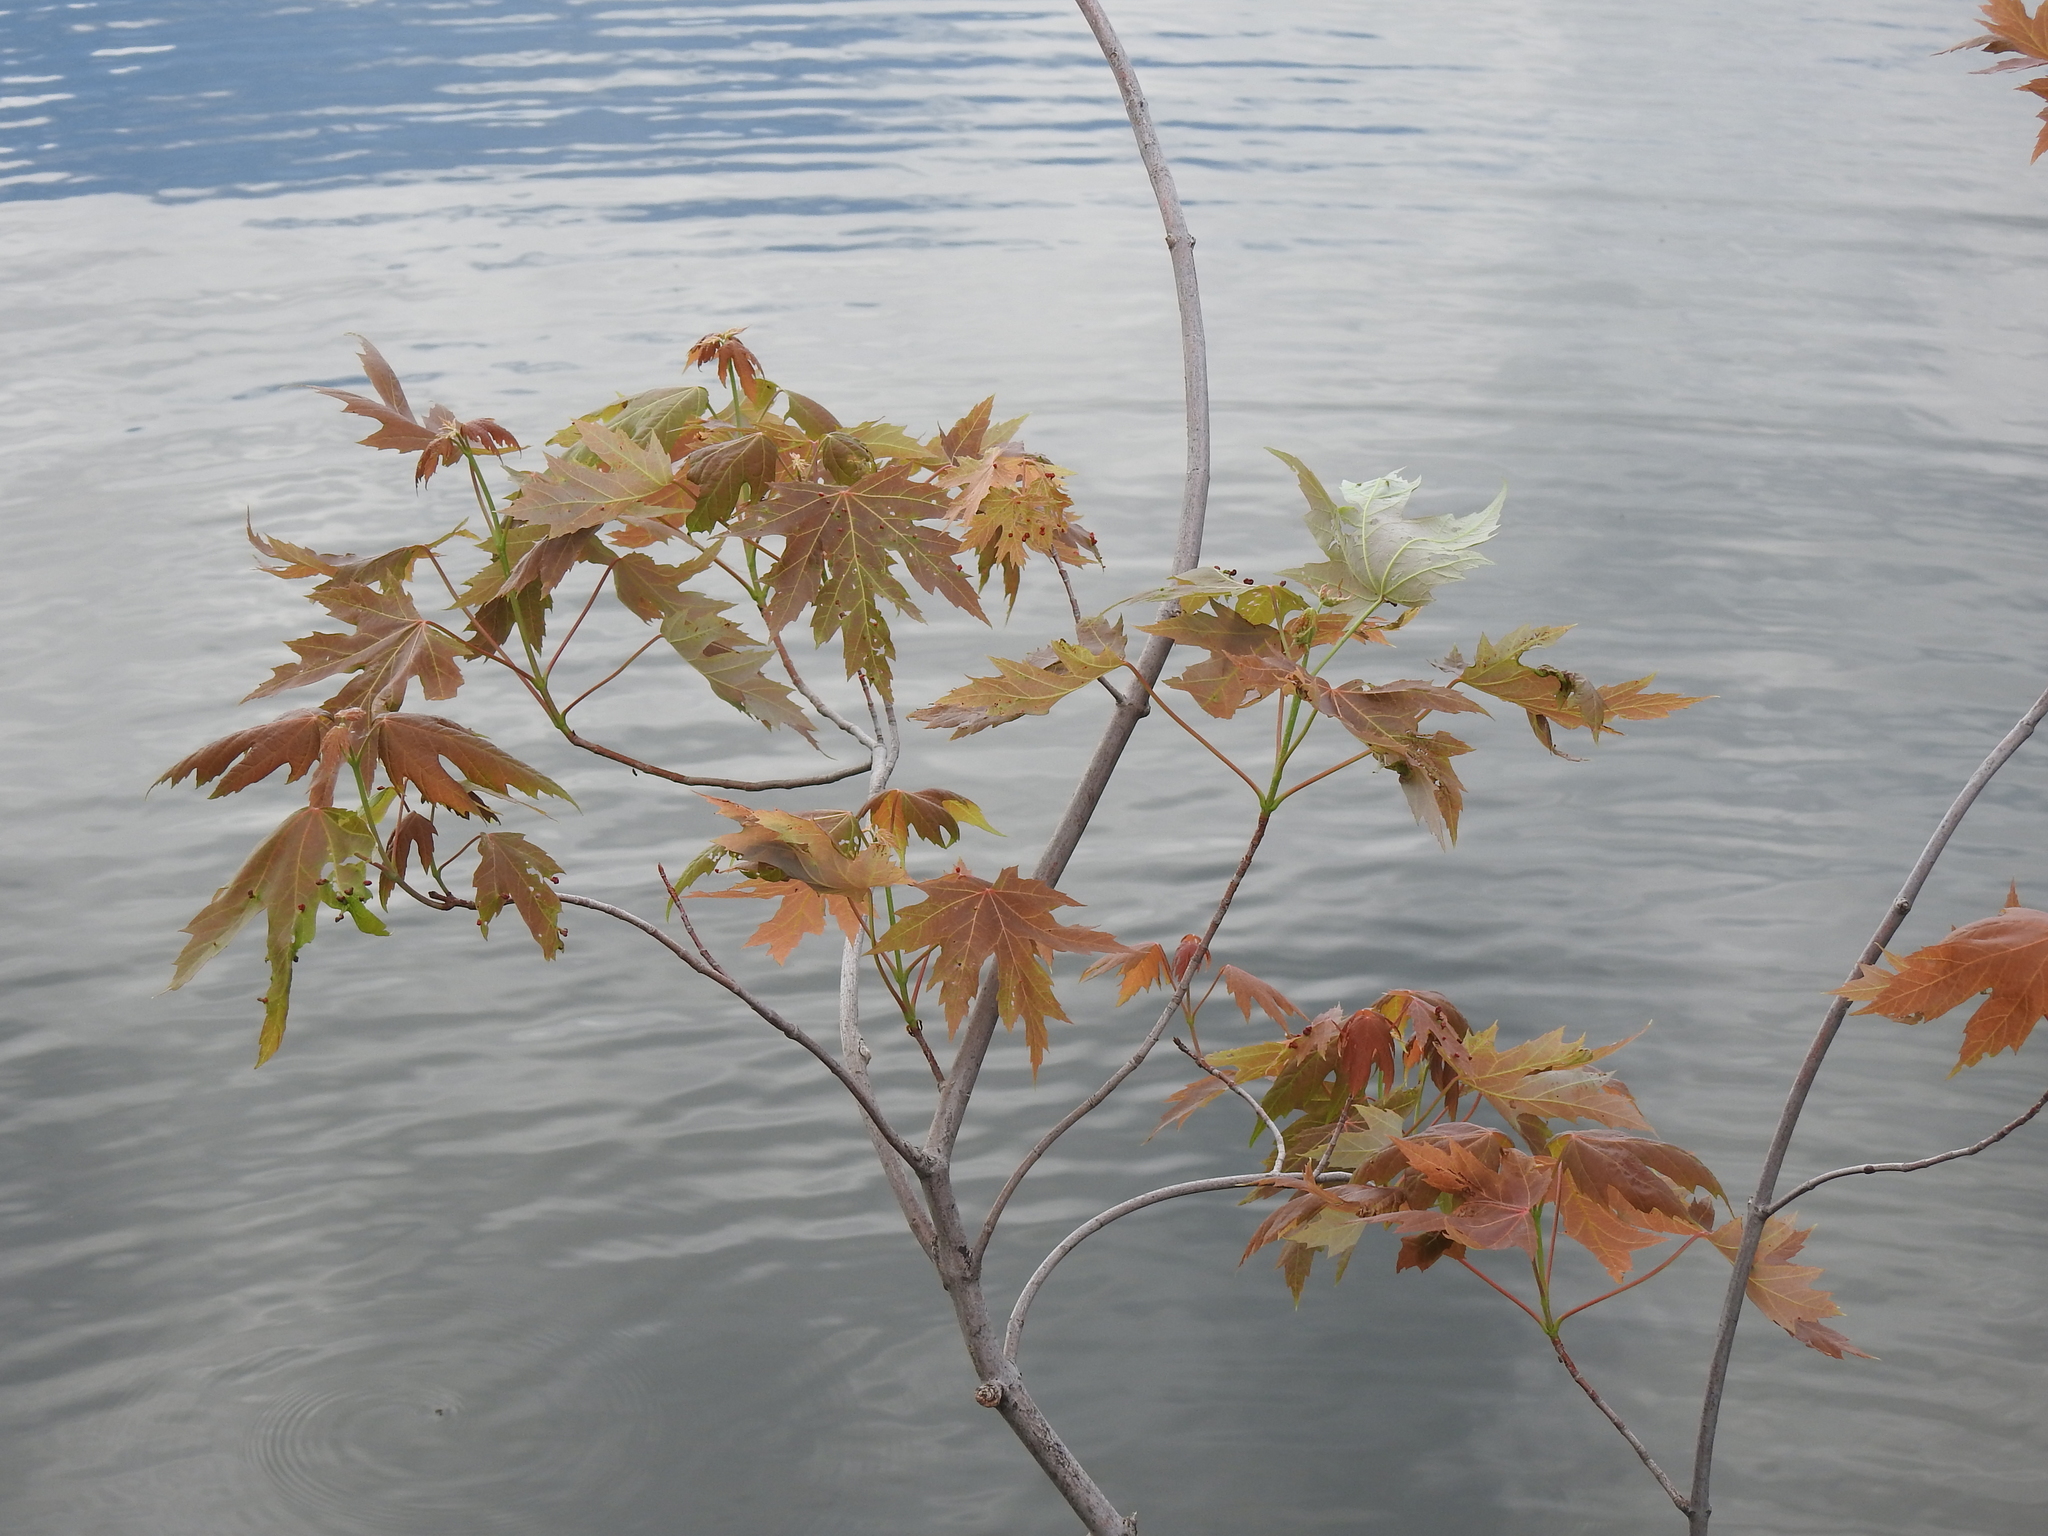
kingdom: Plantae
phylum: Tracheophyta
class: Magnoliopsida
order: Sapindales
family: Sapindaceae
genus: Acer
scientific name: Acer saccharinum
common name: Silver maple
